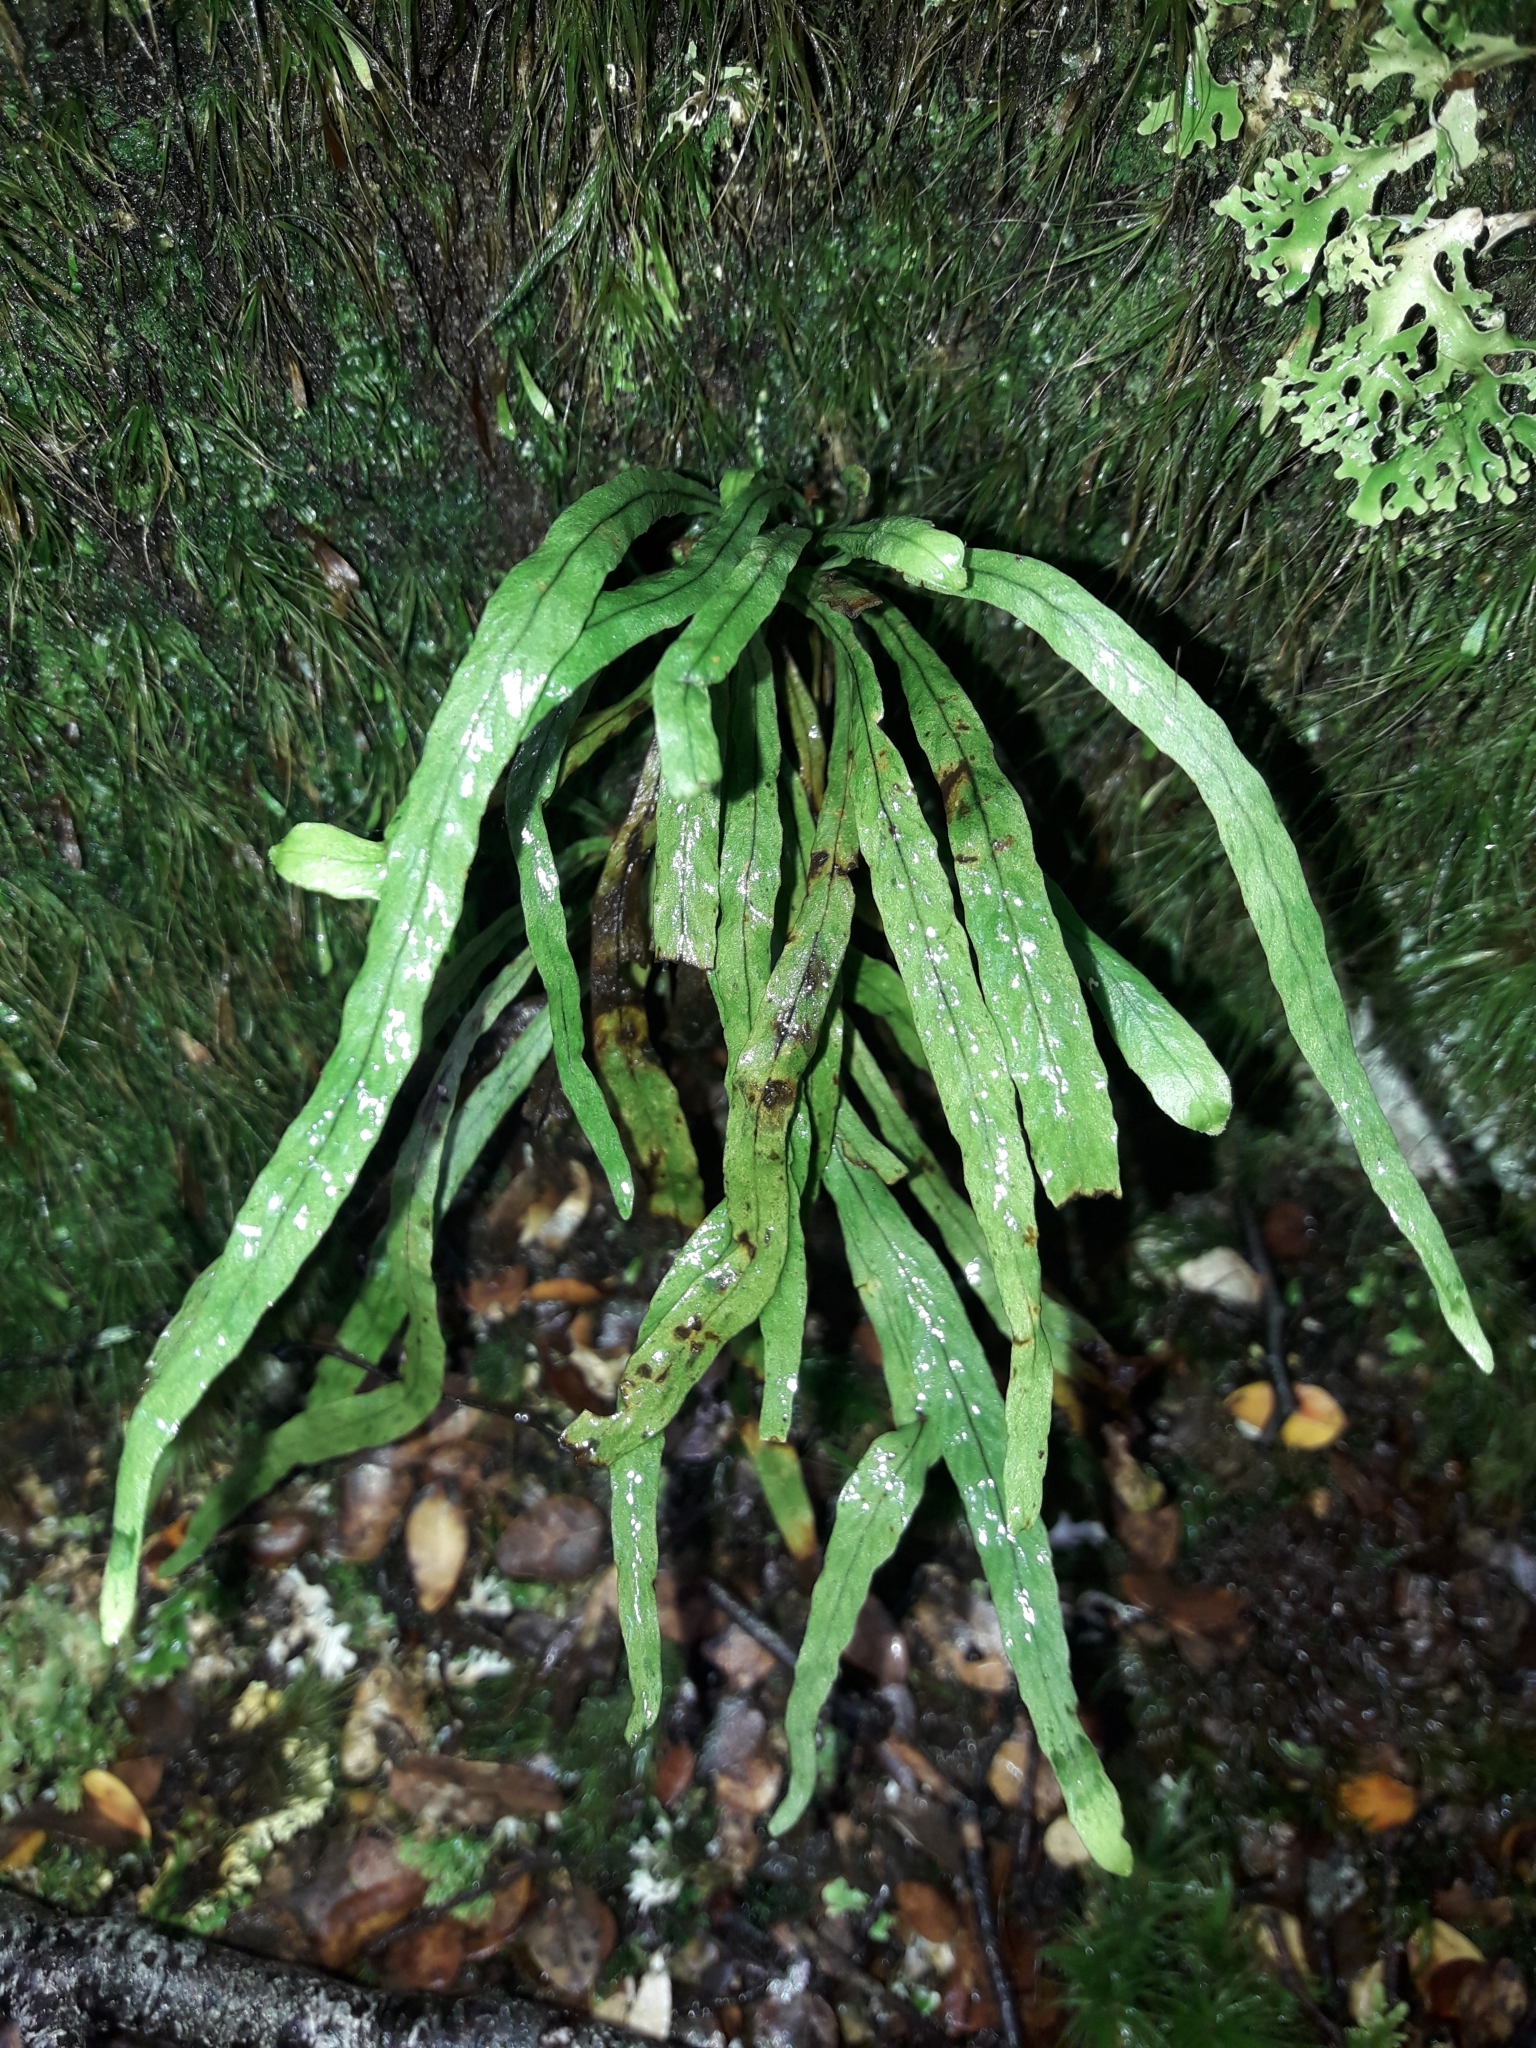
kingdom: Plantae
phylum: Tracheophyta
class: Polypodiopsida
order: Polypodiales
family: Polypodiaceae
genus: Notogrammitis
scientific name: Notogrammitis angustifolia
